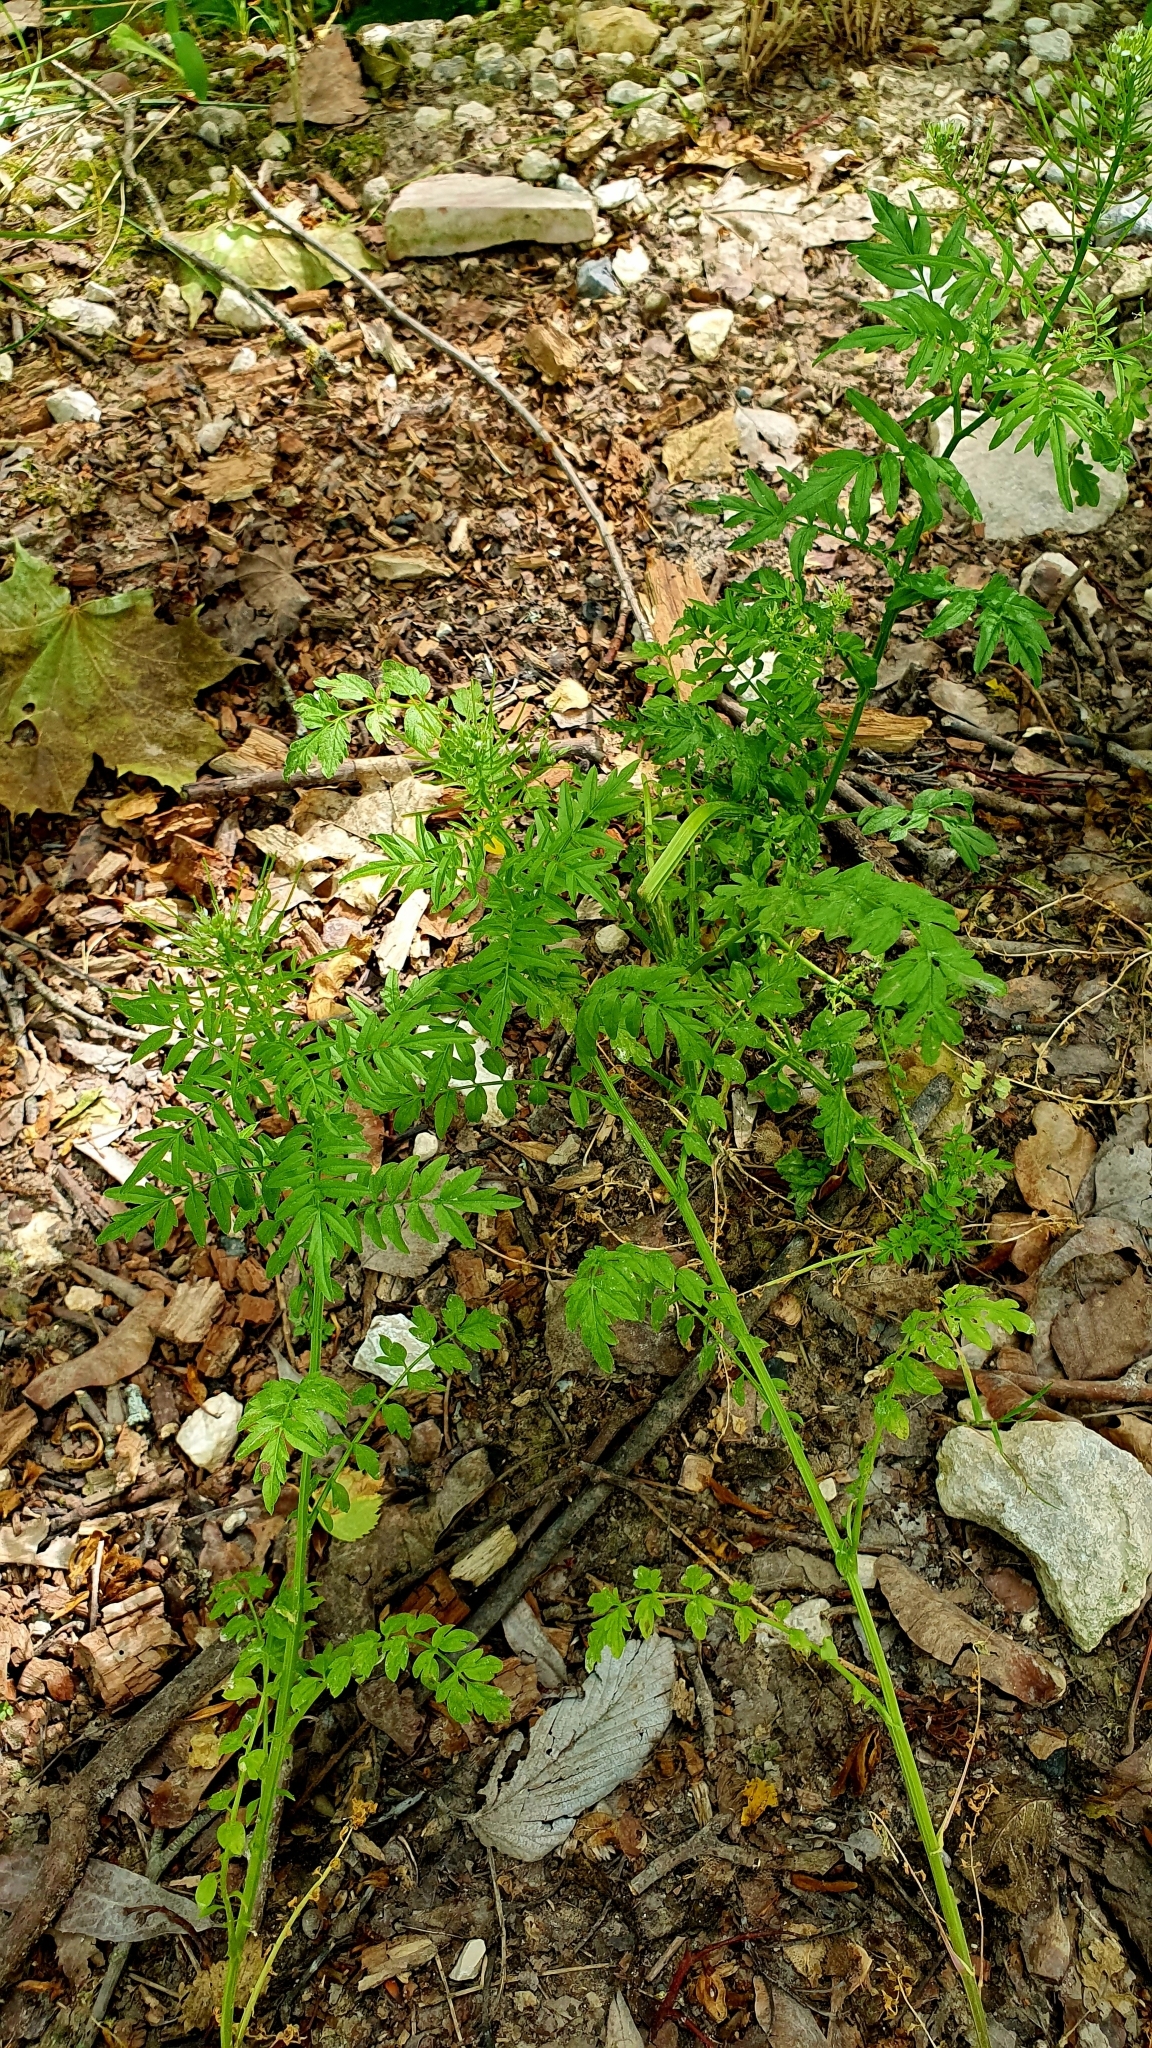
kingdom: Plantae
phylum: Tracheophyta
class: Magnoliopsida
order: Brassicales
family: Brassicaceae
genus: Cardamine
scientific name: Cardamine impatiens
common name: Narrow-leaved bitter-cress
